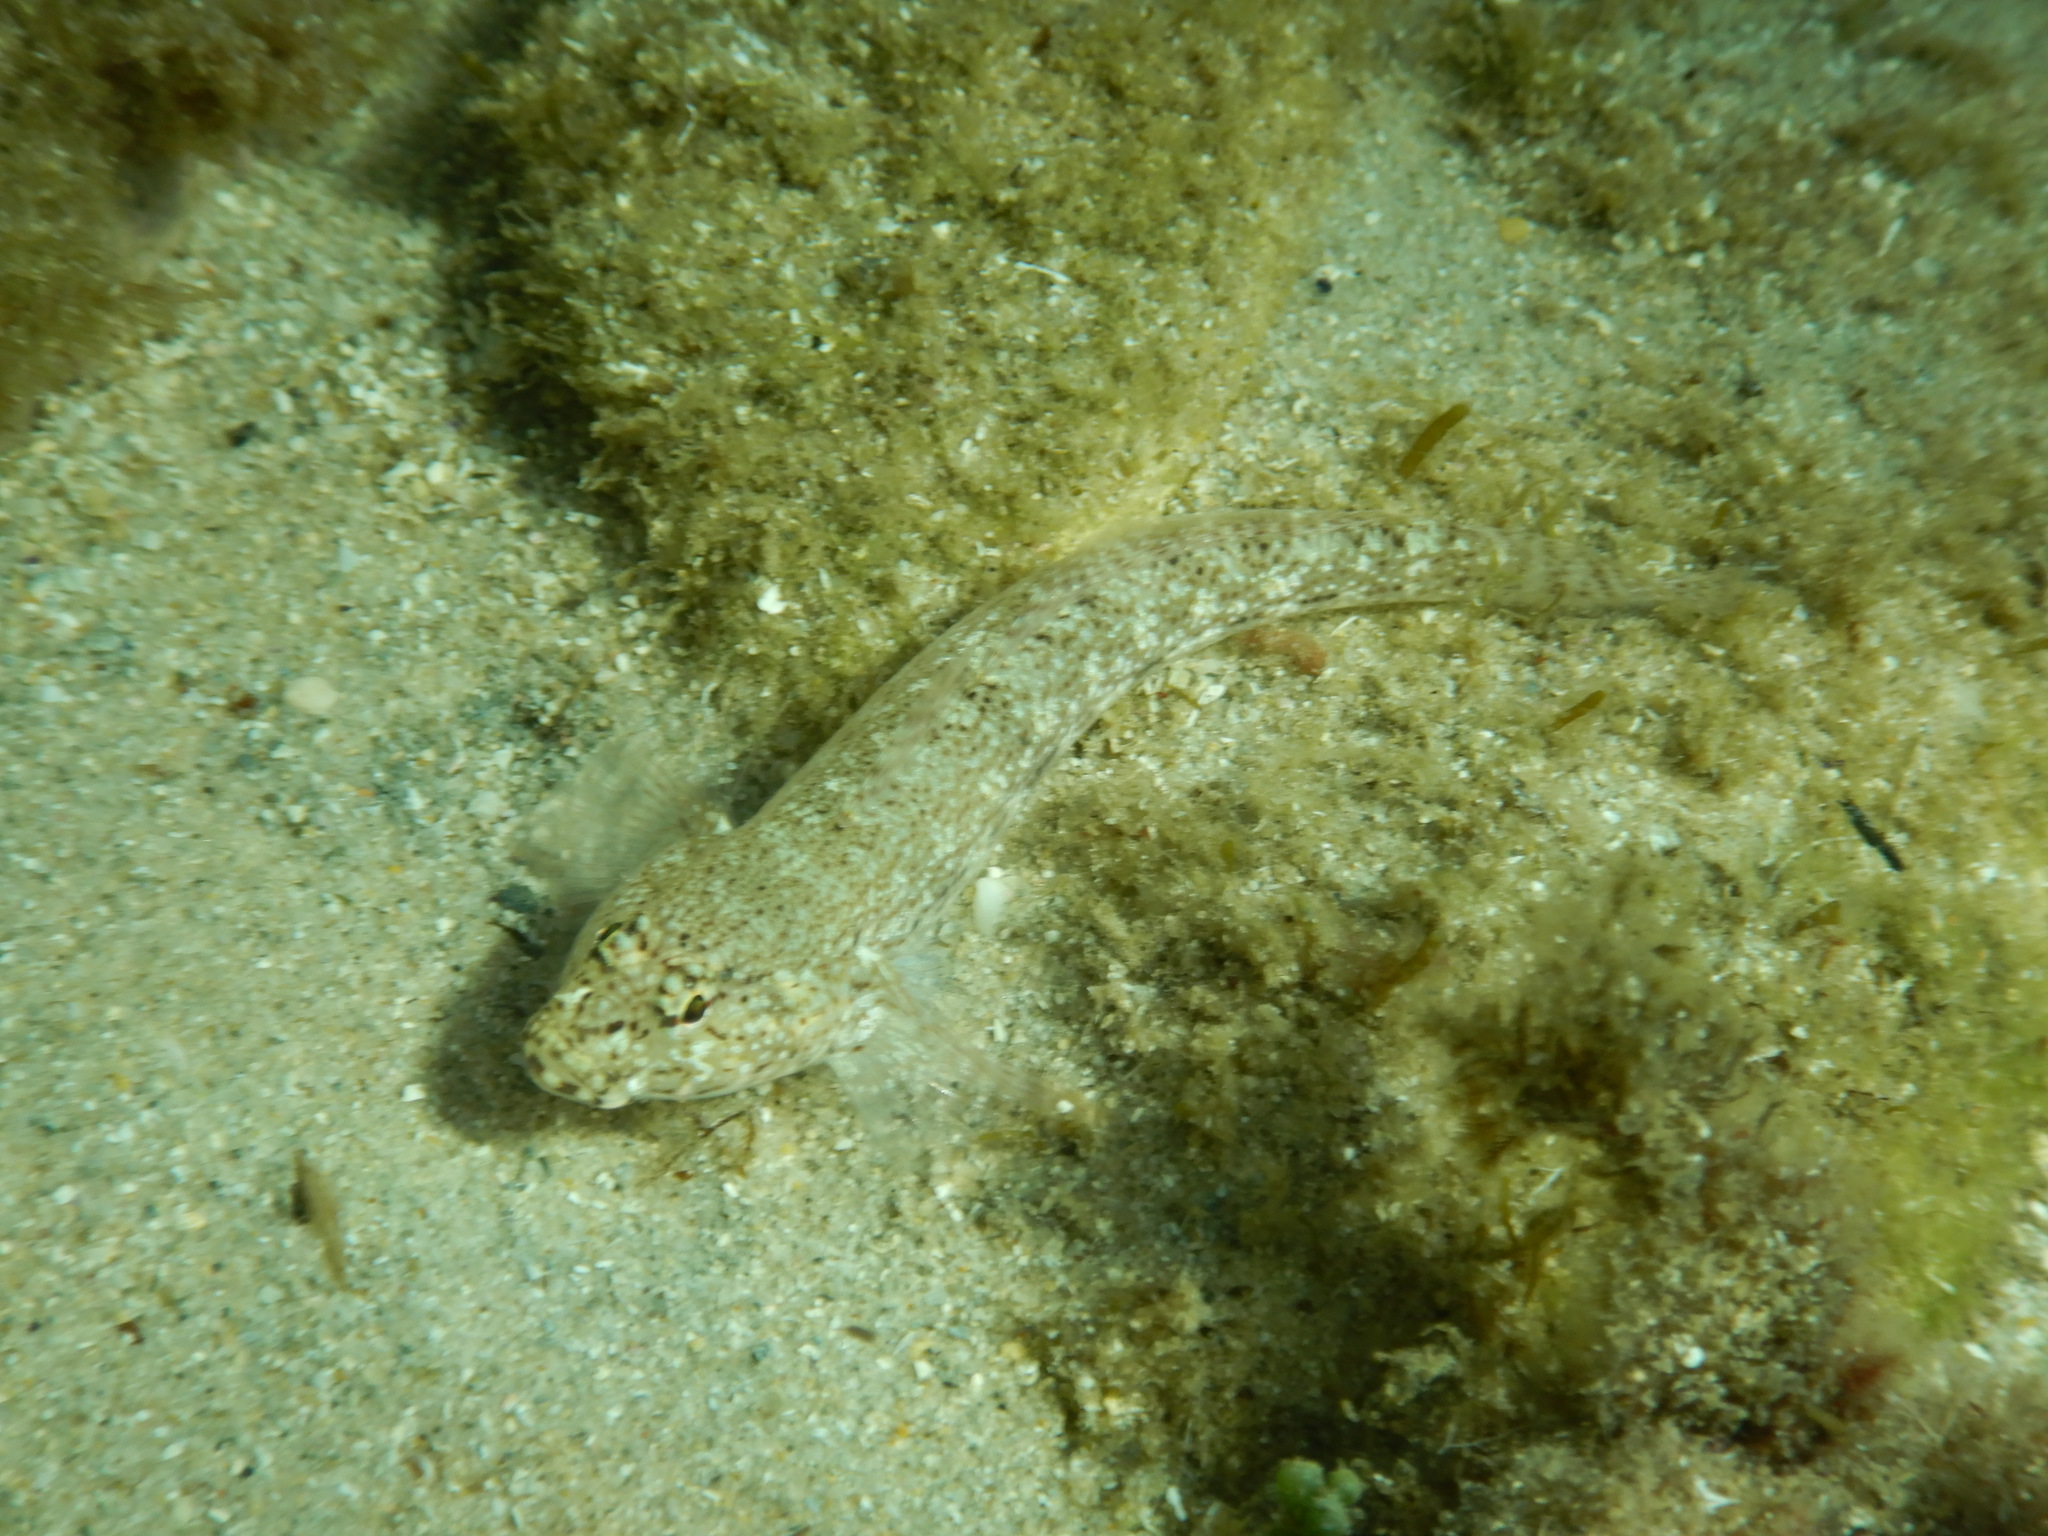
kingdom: Animalia
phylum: Chordata
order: Perciformes
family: Gobiidae
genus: Gobius
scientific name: Gobius incognitus
